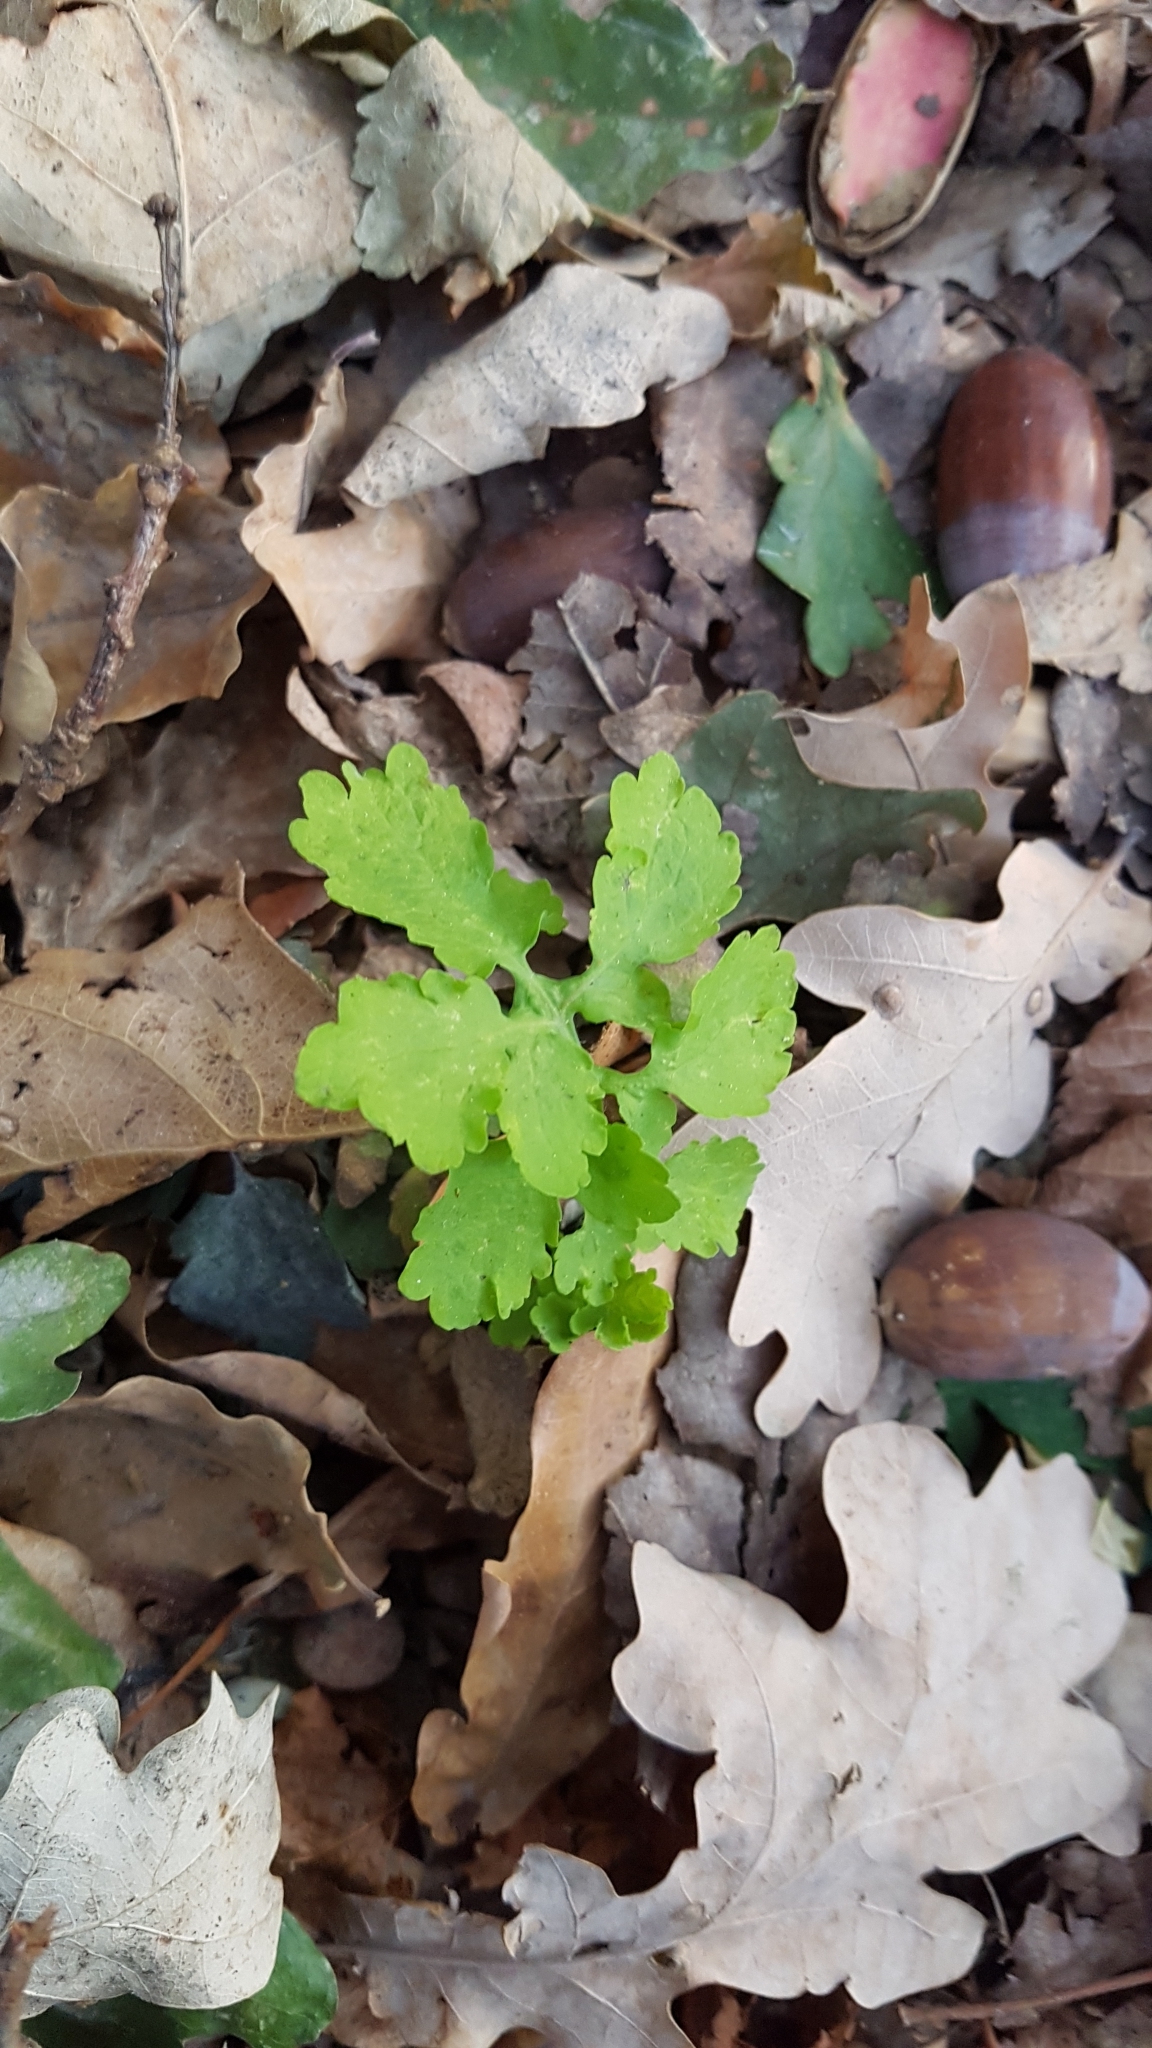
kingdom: Plantae
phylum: Tracheophyta
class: Magnoliopsida
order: Ranunculales
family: Papaveraceae
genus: Chelidonium
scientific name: Chelidonium majus
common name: Greater celandine
